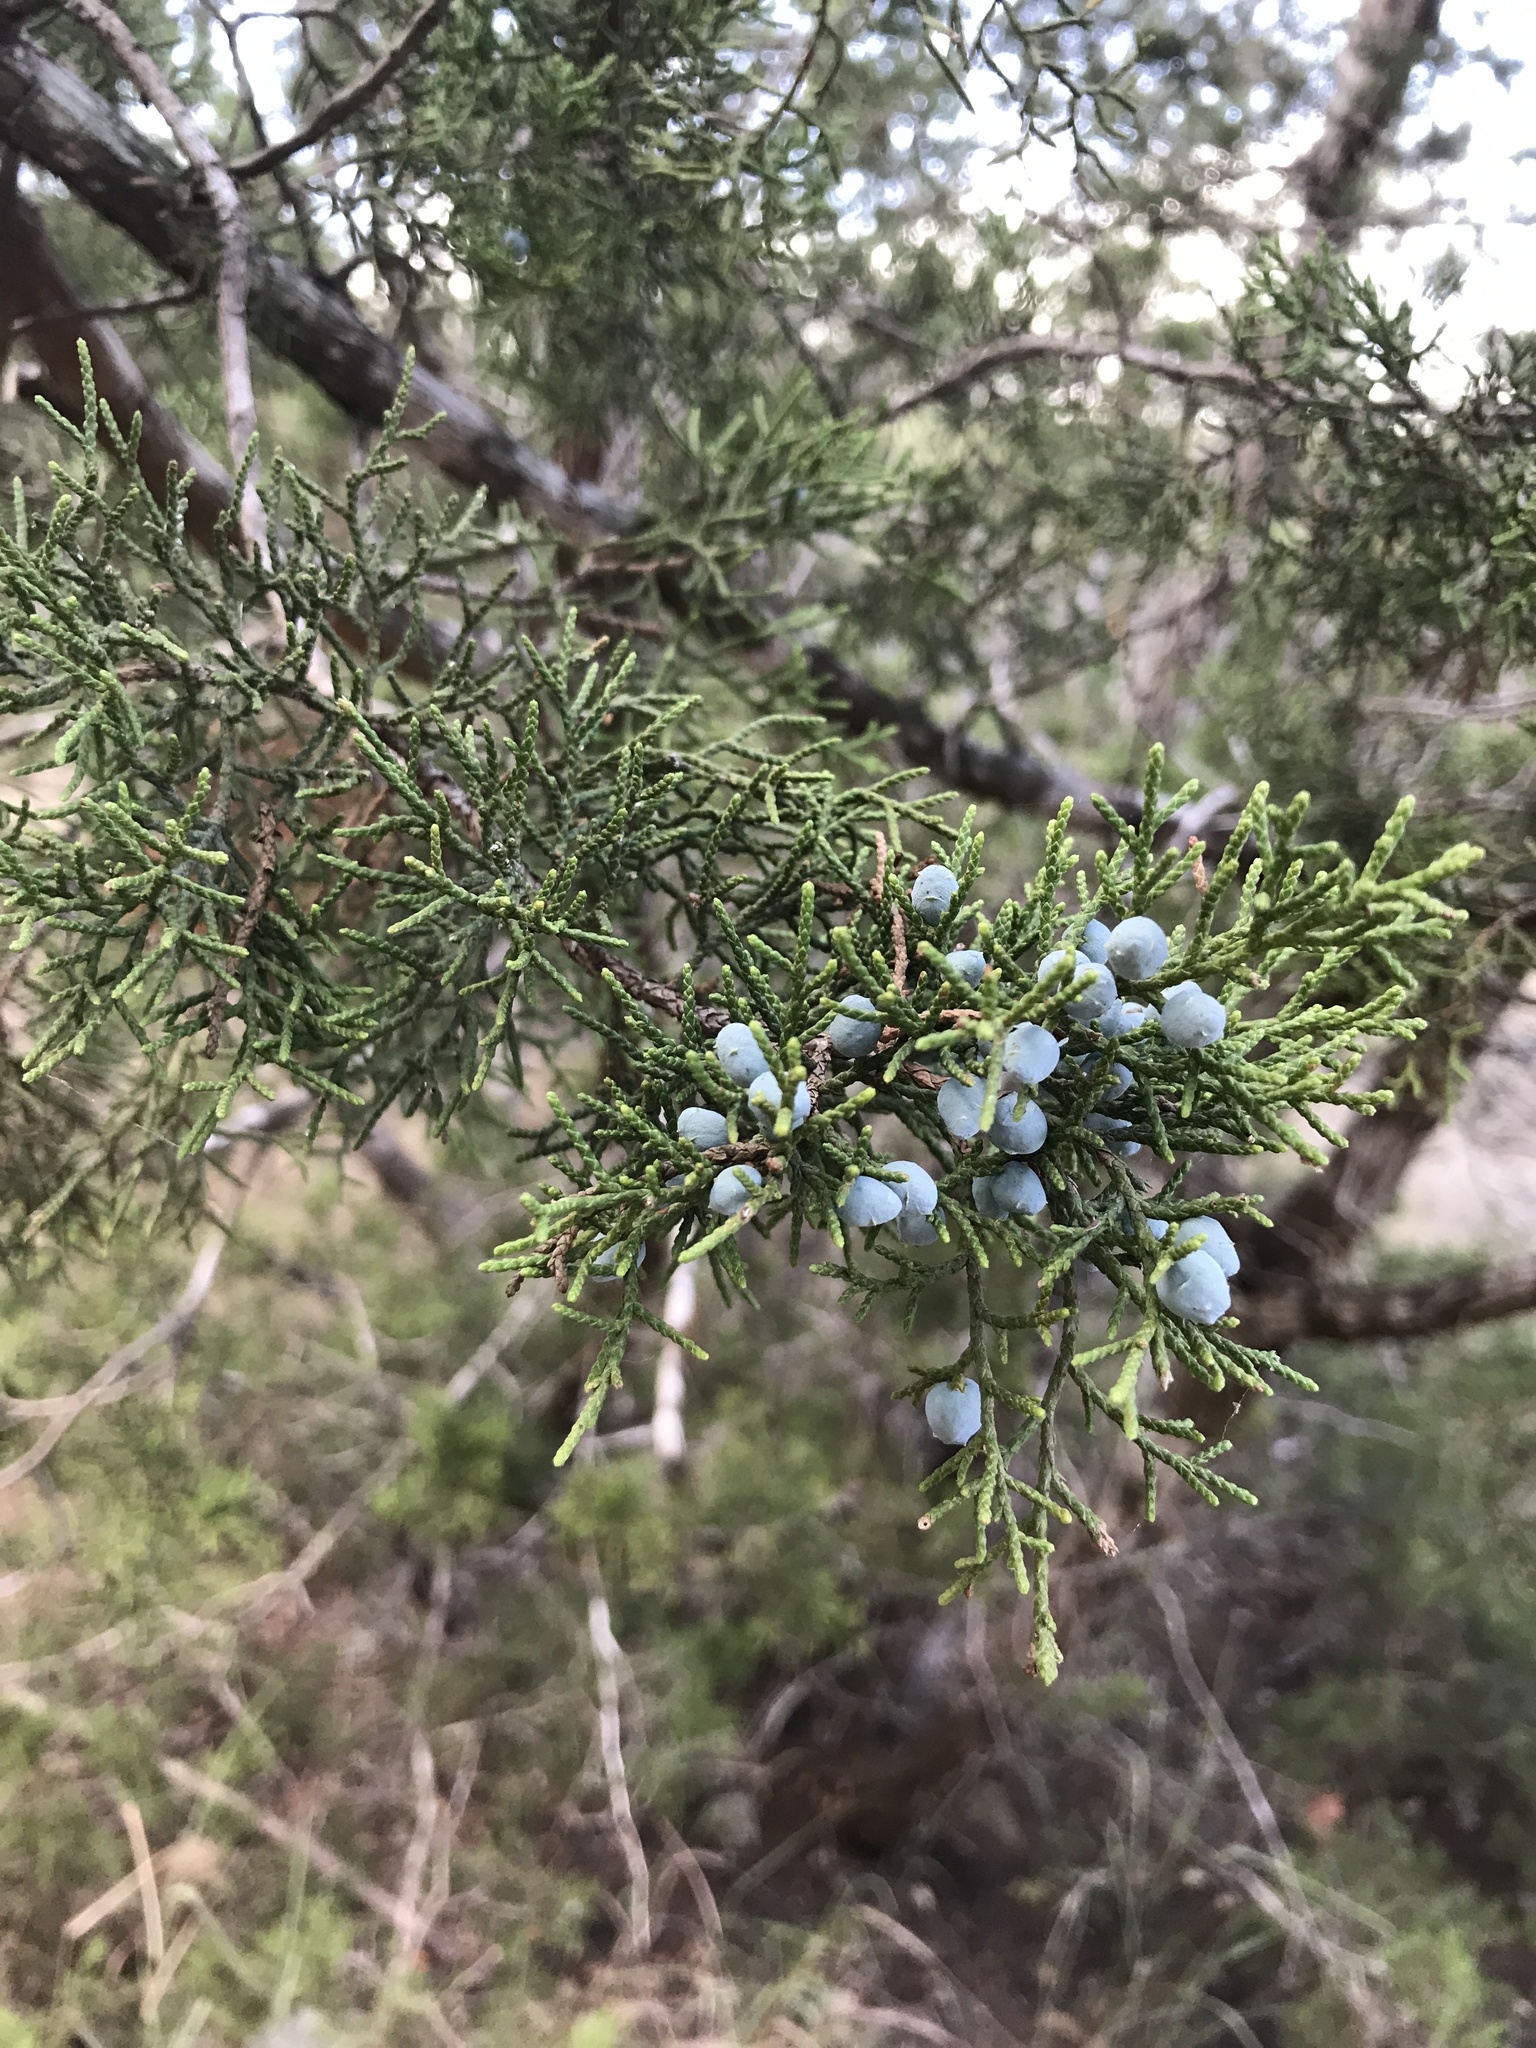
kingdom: Plantae
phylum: Tracheophyta
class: Pinopsida
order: Pinales
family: Cupressaceae
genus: Juniperus
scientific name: Juniperus ashei
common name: Mexican juniper
